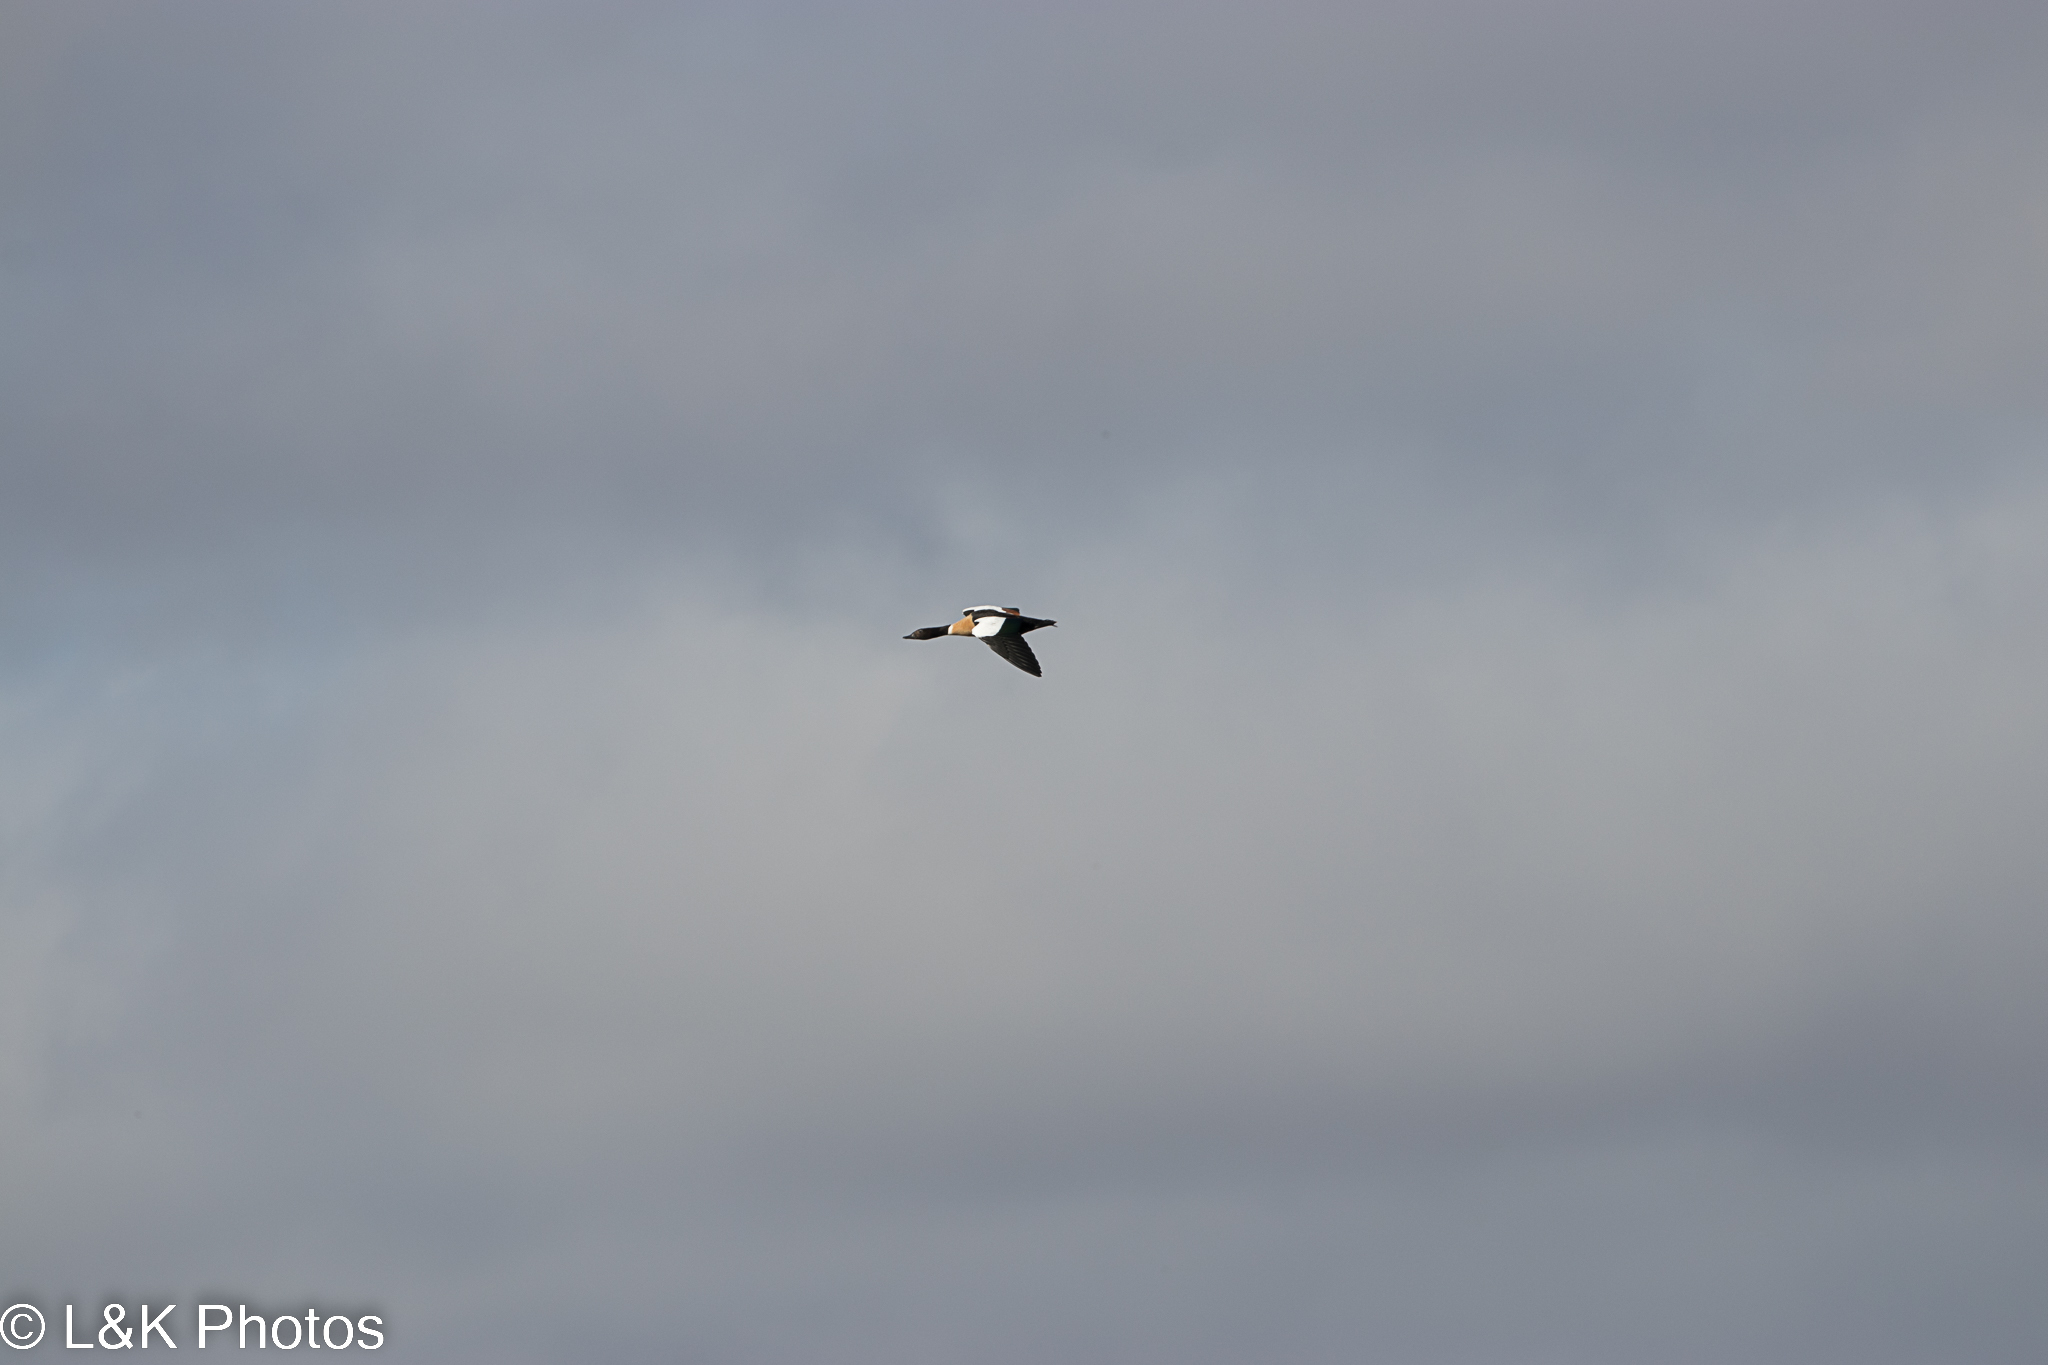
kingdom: Animalia
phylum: Chordata
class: Aves
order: Anseriformes
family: Anatidae
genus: Tadorna
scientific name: Tadorna tadornoides
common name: Australian shelduck
